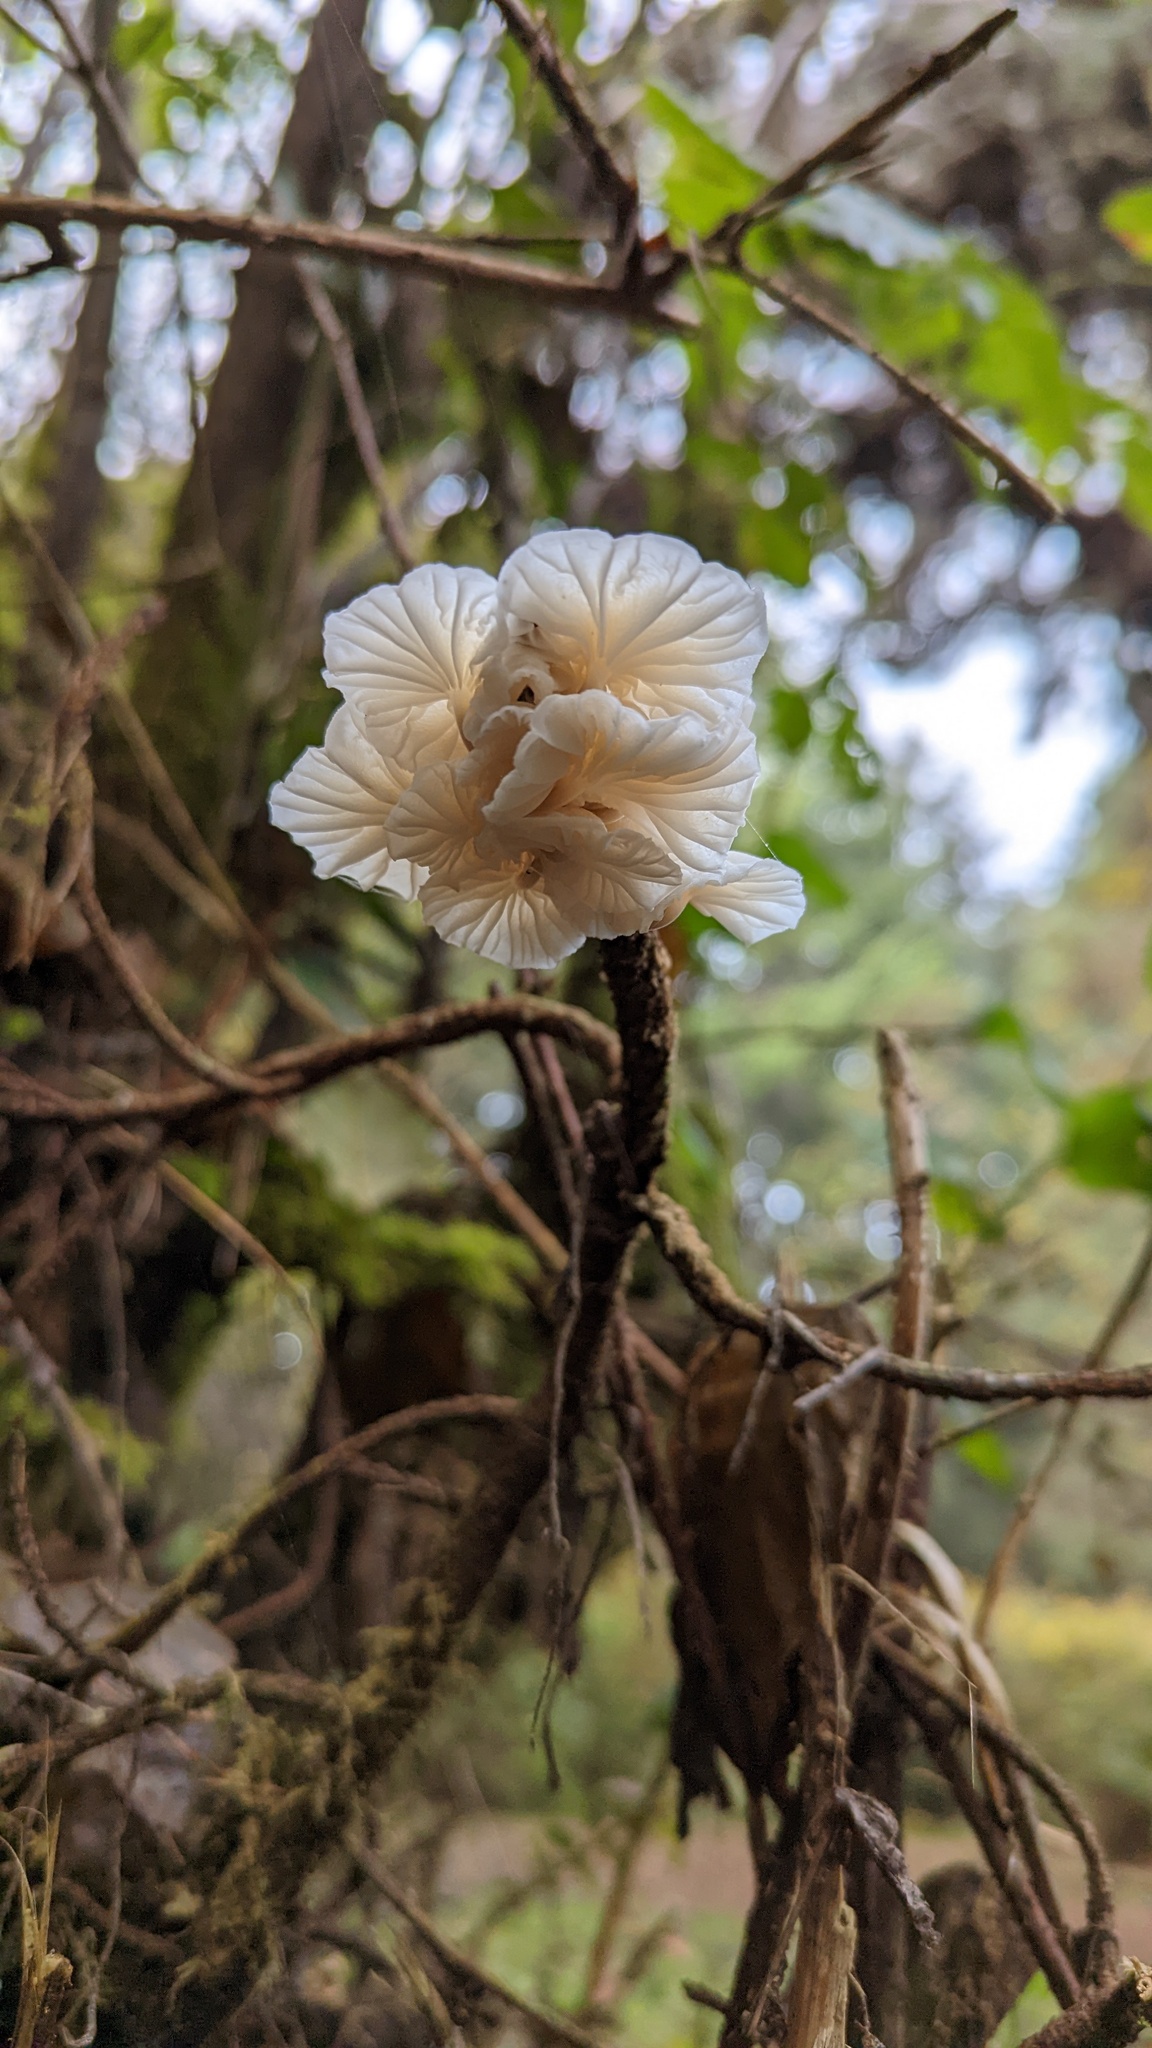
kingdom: Fungi
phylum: Basidiomycota
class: Agaricomycetes
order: Agaricales
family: Omphalotaceae
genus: Marasmiellus
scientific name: Marasmiellus candidus
